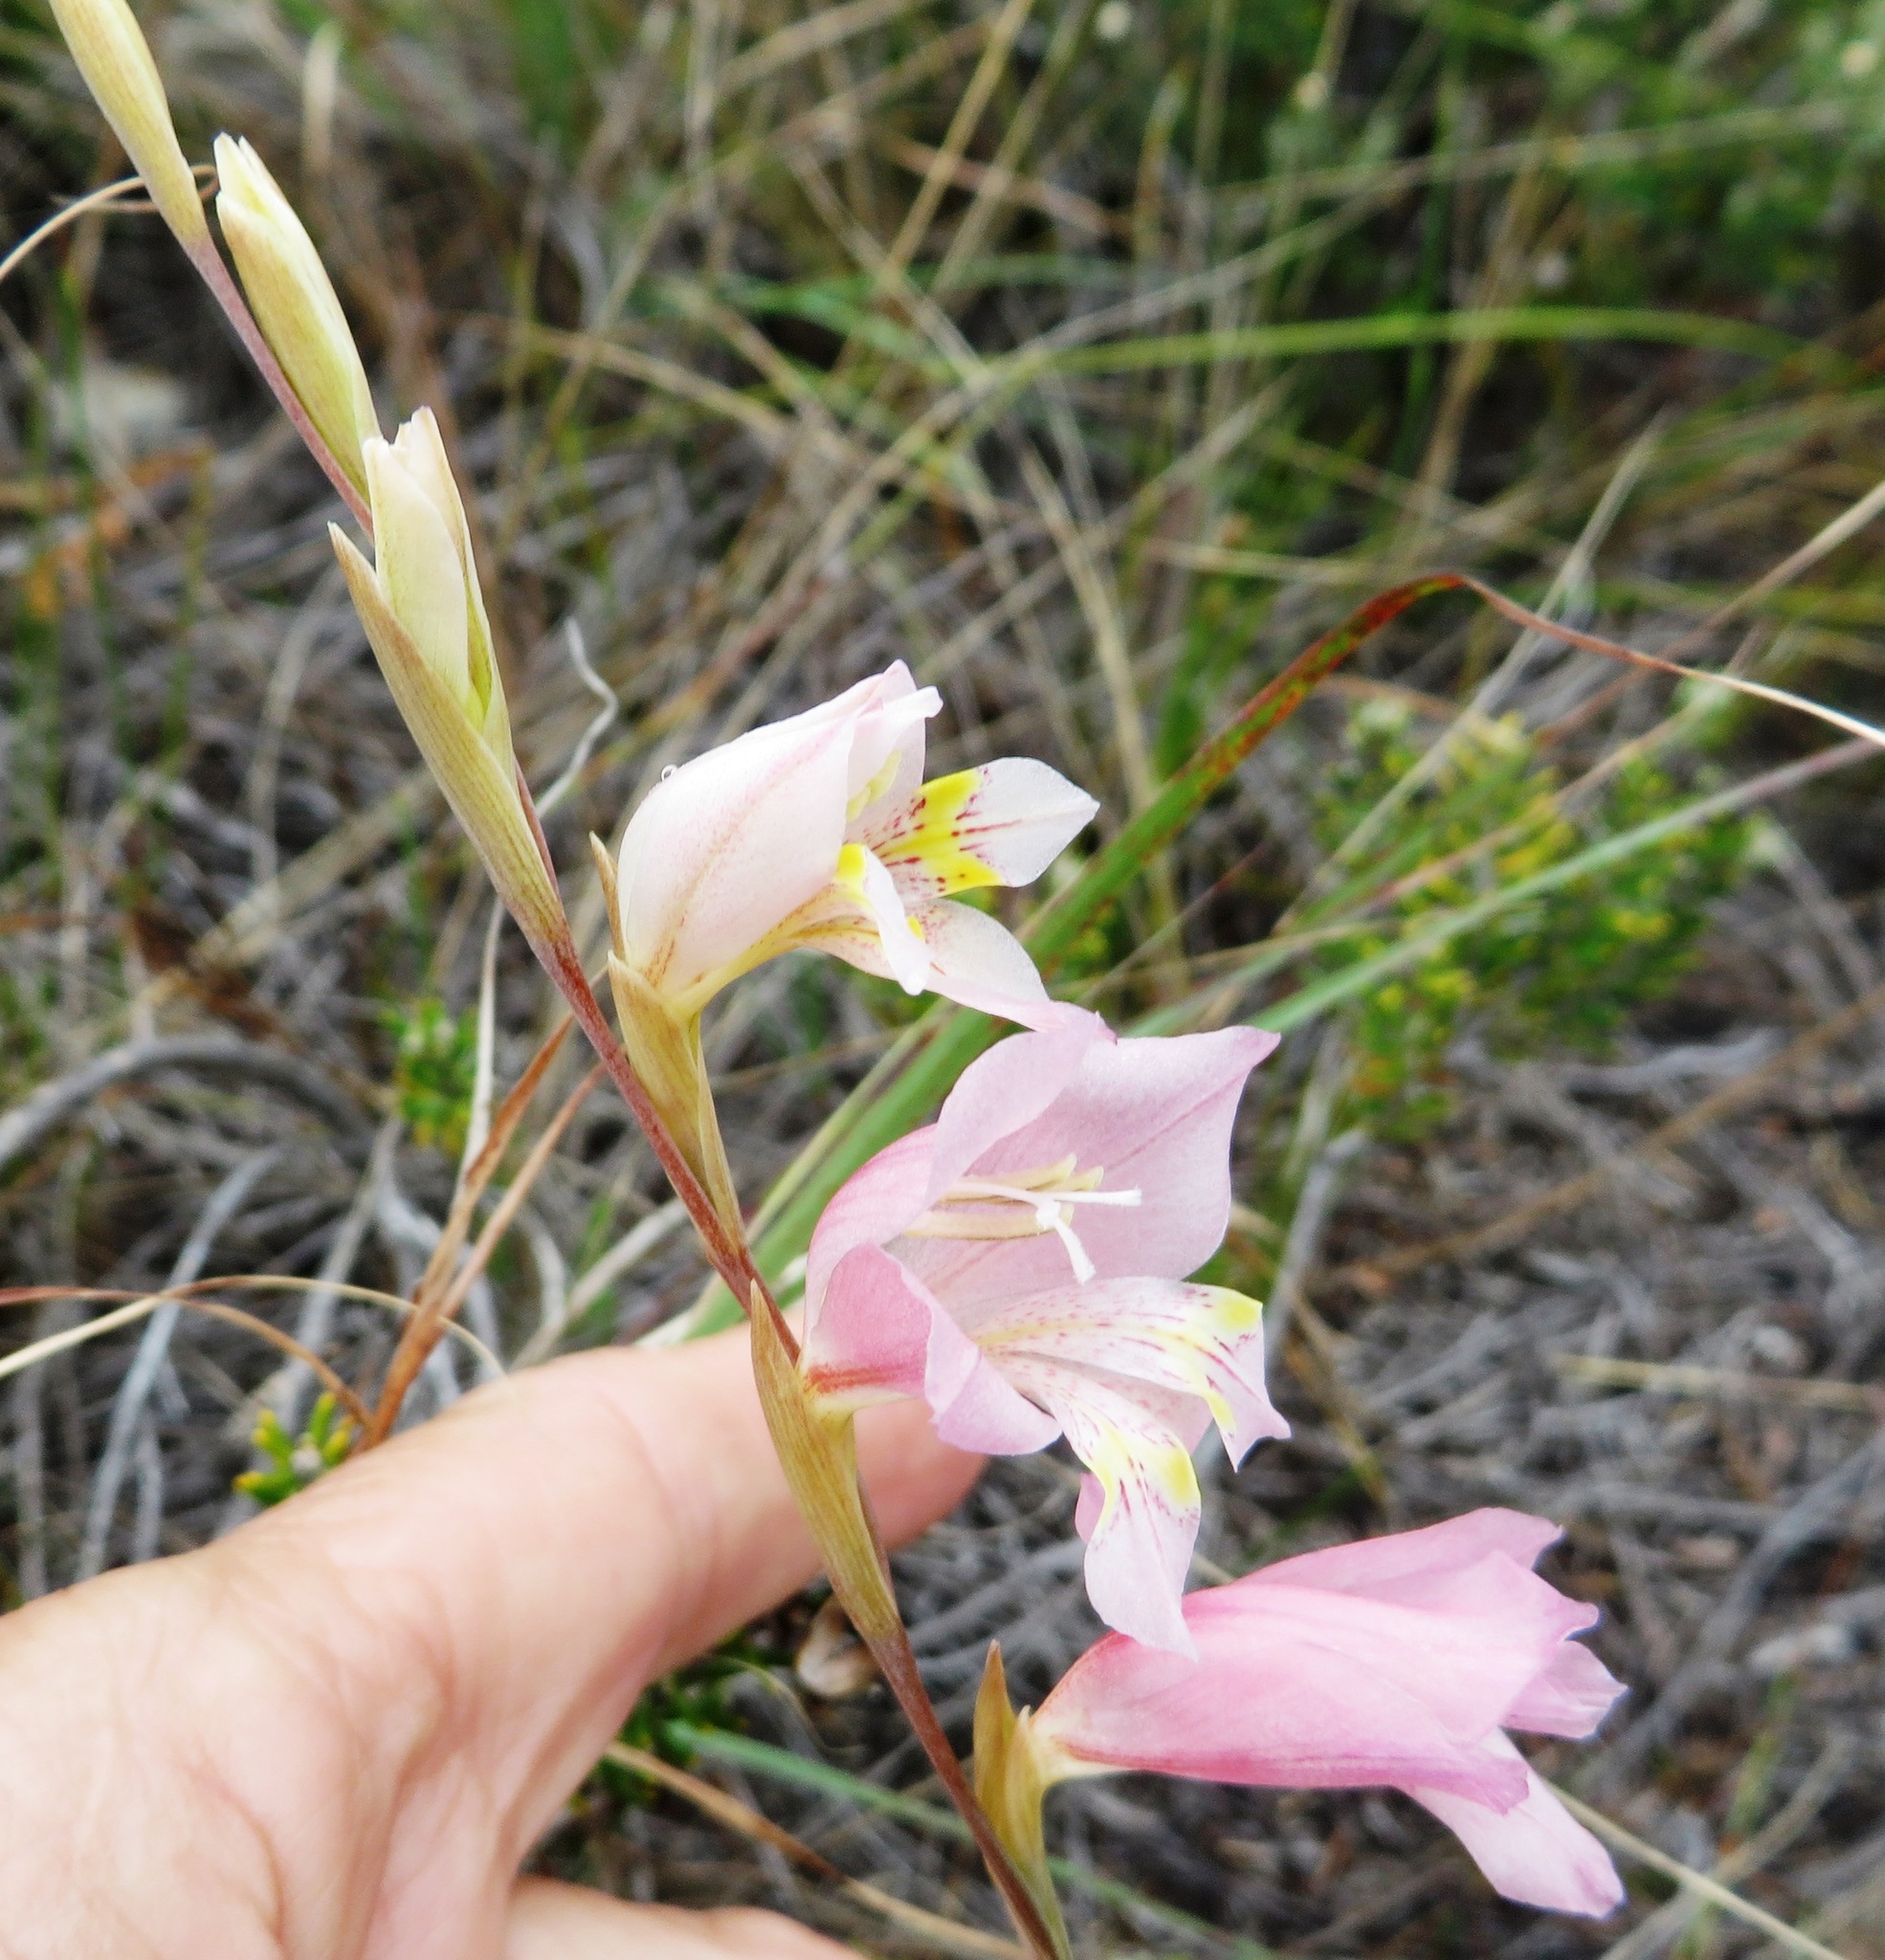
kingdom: Plantae
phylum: Tracheophyta
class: Liliopsida
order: Asparagales
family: Iridaceae
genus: Gladiolus
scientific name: Gladiolus brevifolius
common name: March pypie
